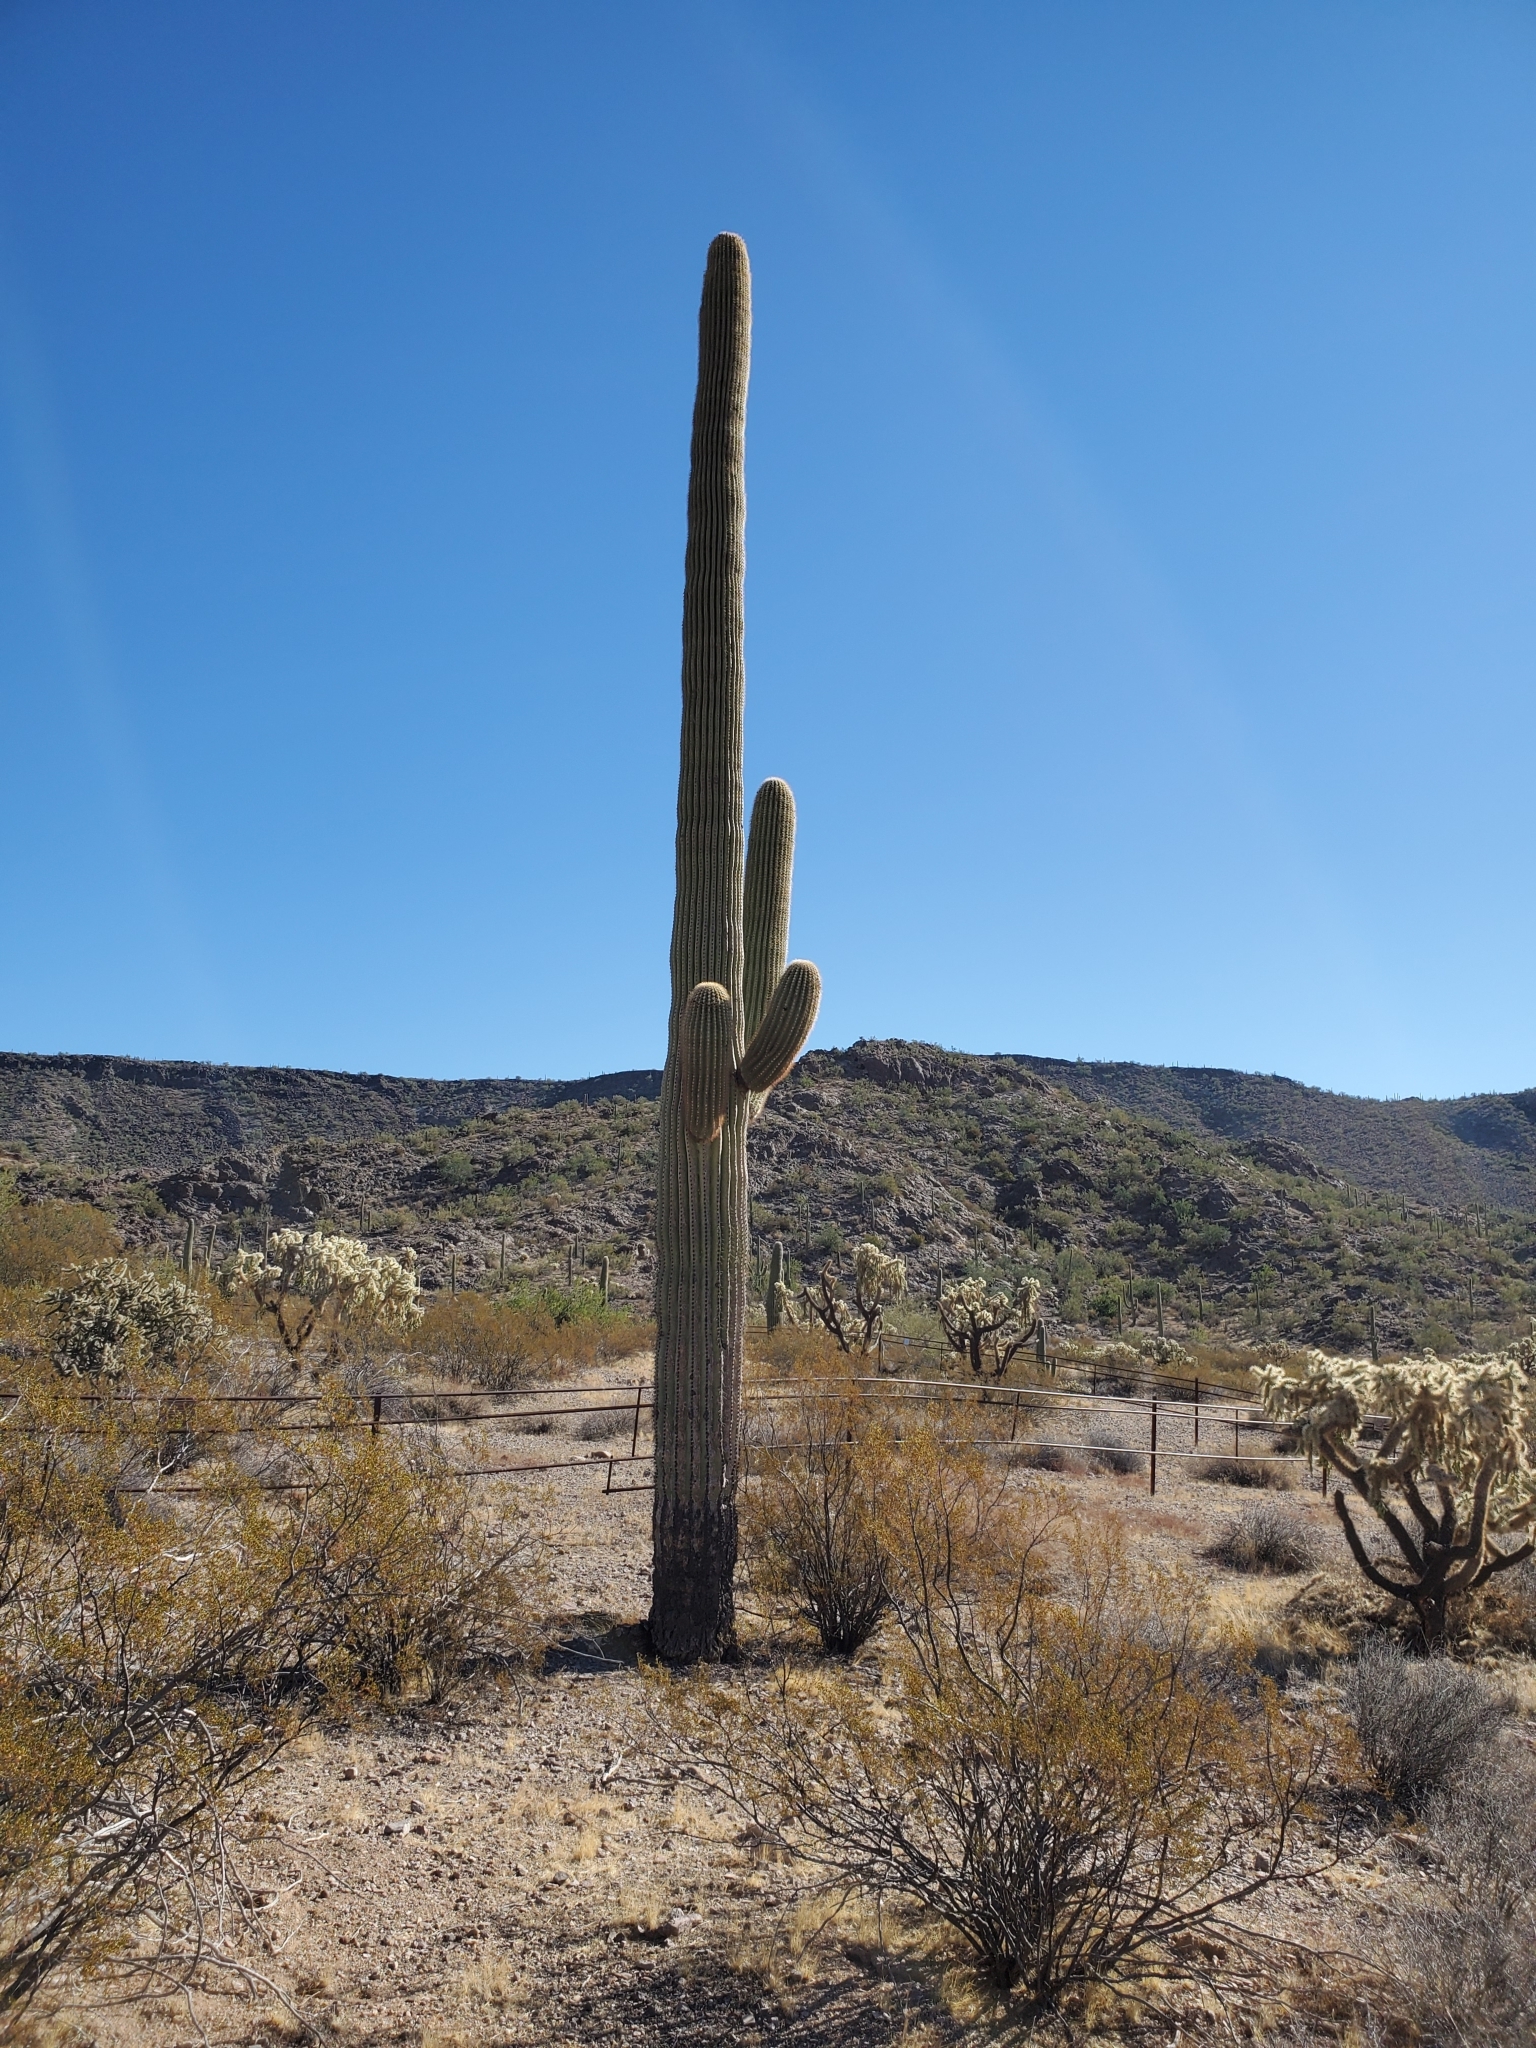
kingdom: Plantae
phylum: Tracheophyta
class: Magnoliopsida
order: Caryophyllales
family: Cactaceae
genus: Carnegiea
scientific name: Carnegiea gigantea
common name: Saguaro
